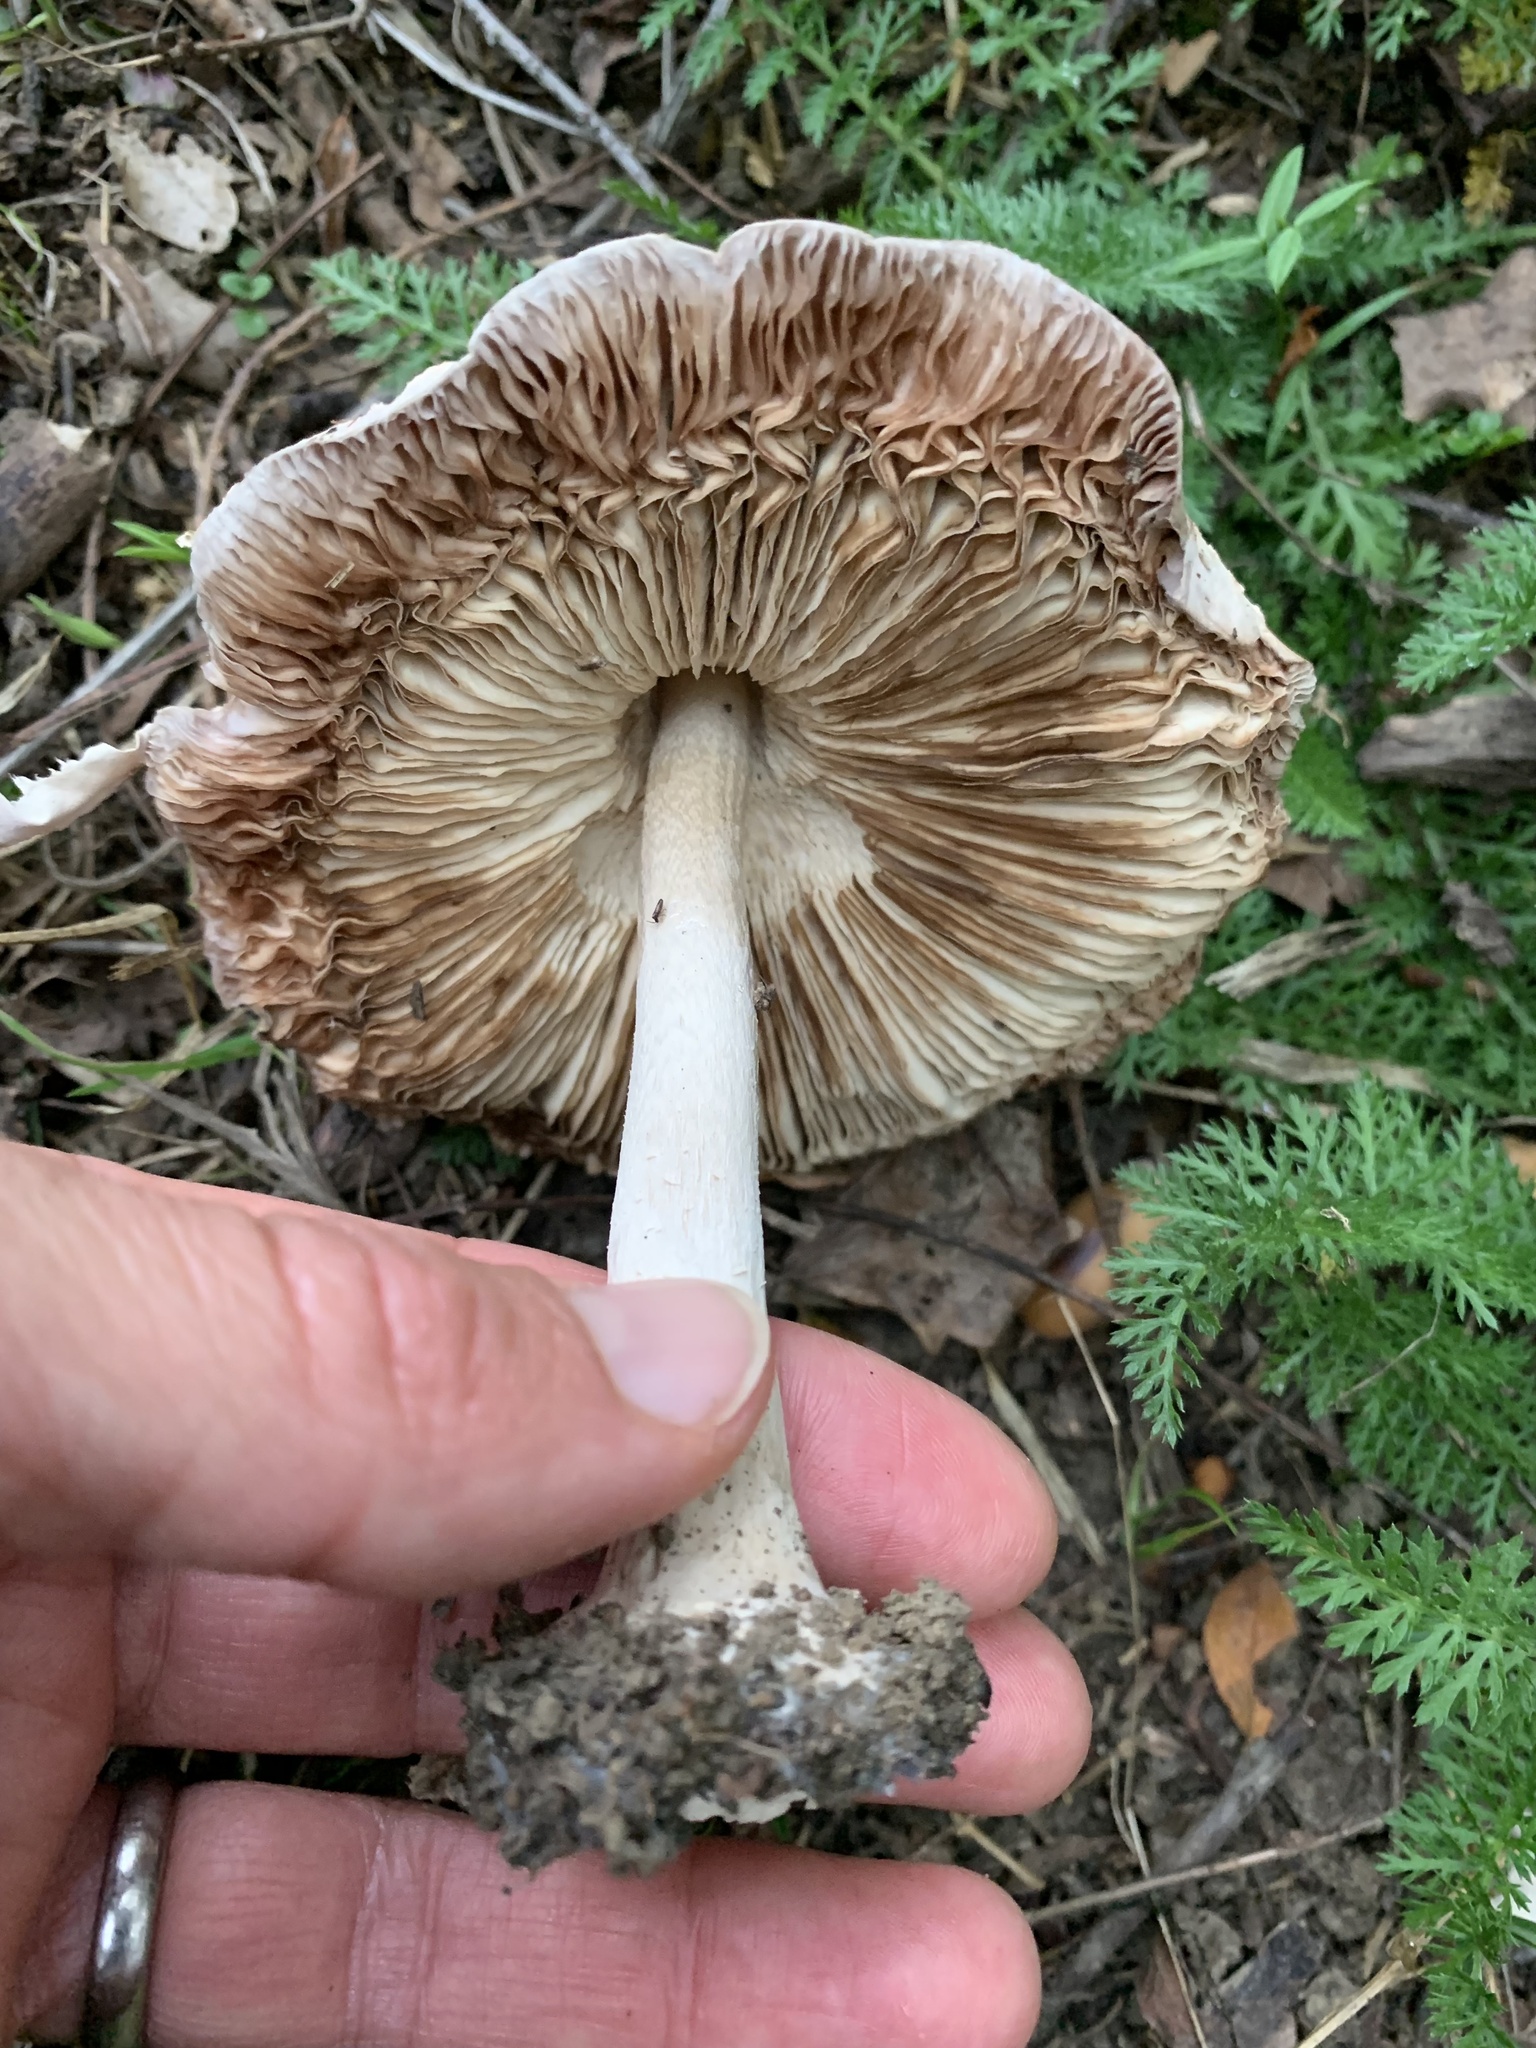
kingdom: Fungi
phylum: Basidiomycota
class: Agaricomycetes
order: Agaricales
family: Pluteaceae
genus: Volvopluteus
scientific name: Volvopluteus gloiocephalus
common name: Stubble rosegill
